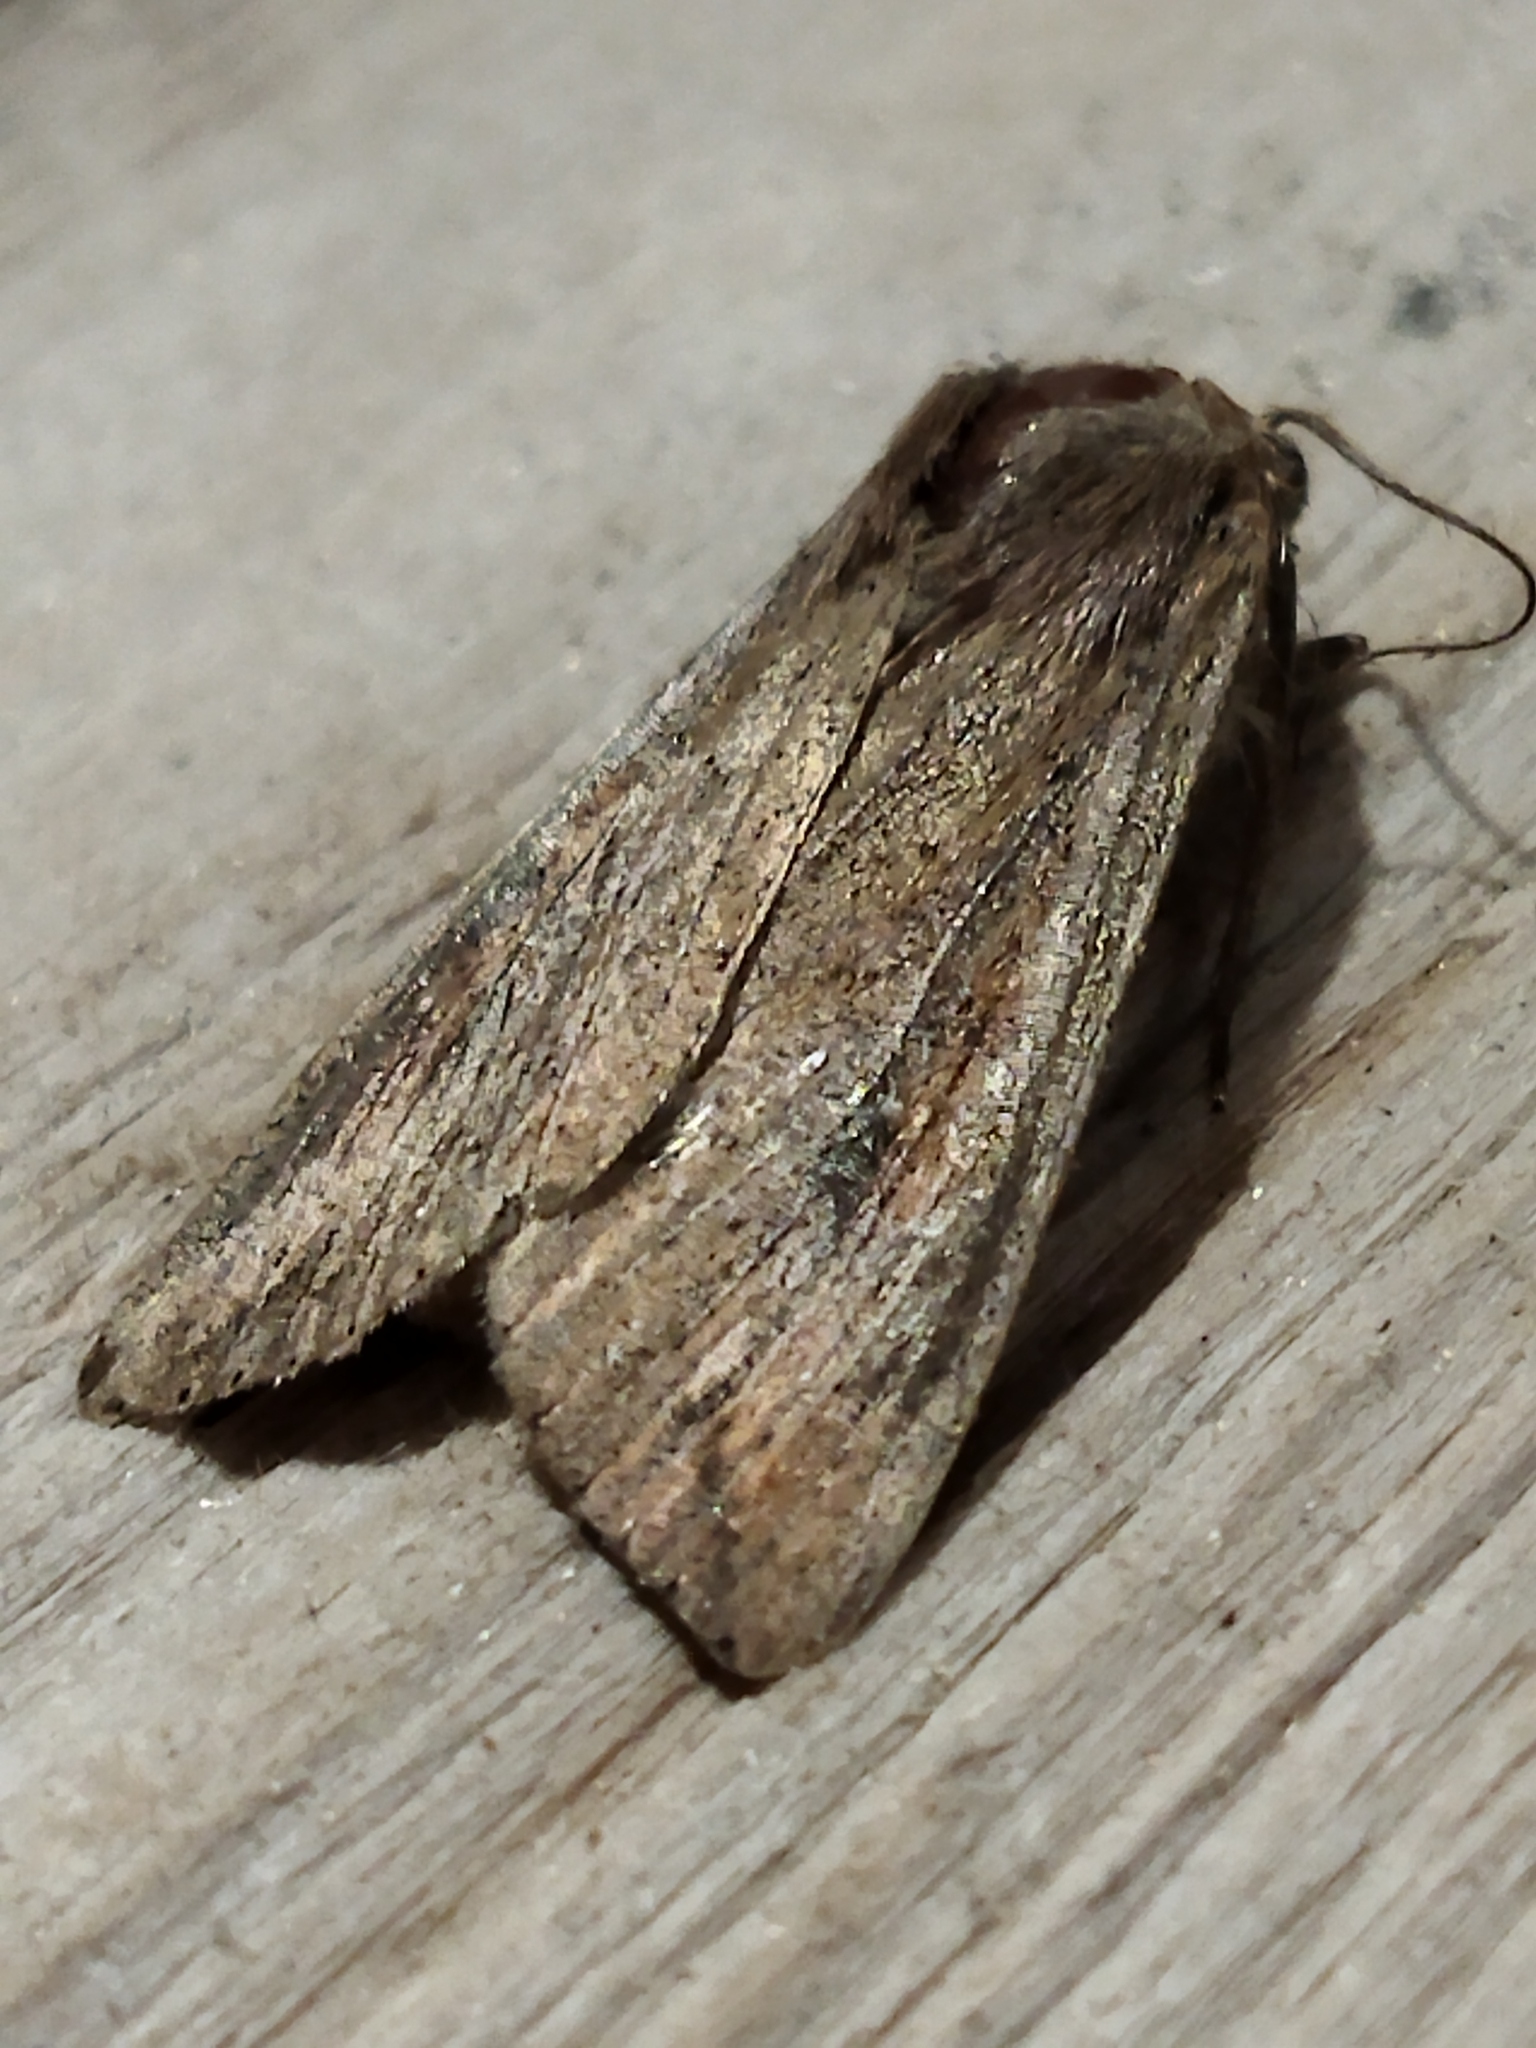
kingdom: Animalia
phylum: Arthropoda
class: Insecta
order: Lepidoptera
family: Noctuidae
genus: Mythimna
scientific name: Mythimna unipuncta
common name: White-speck
